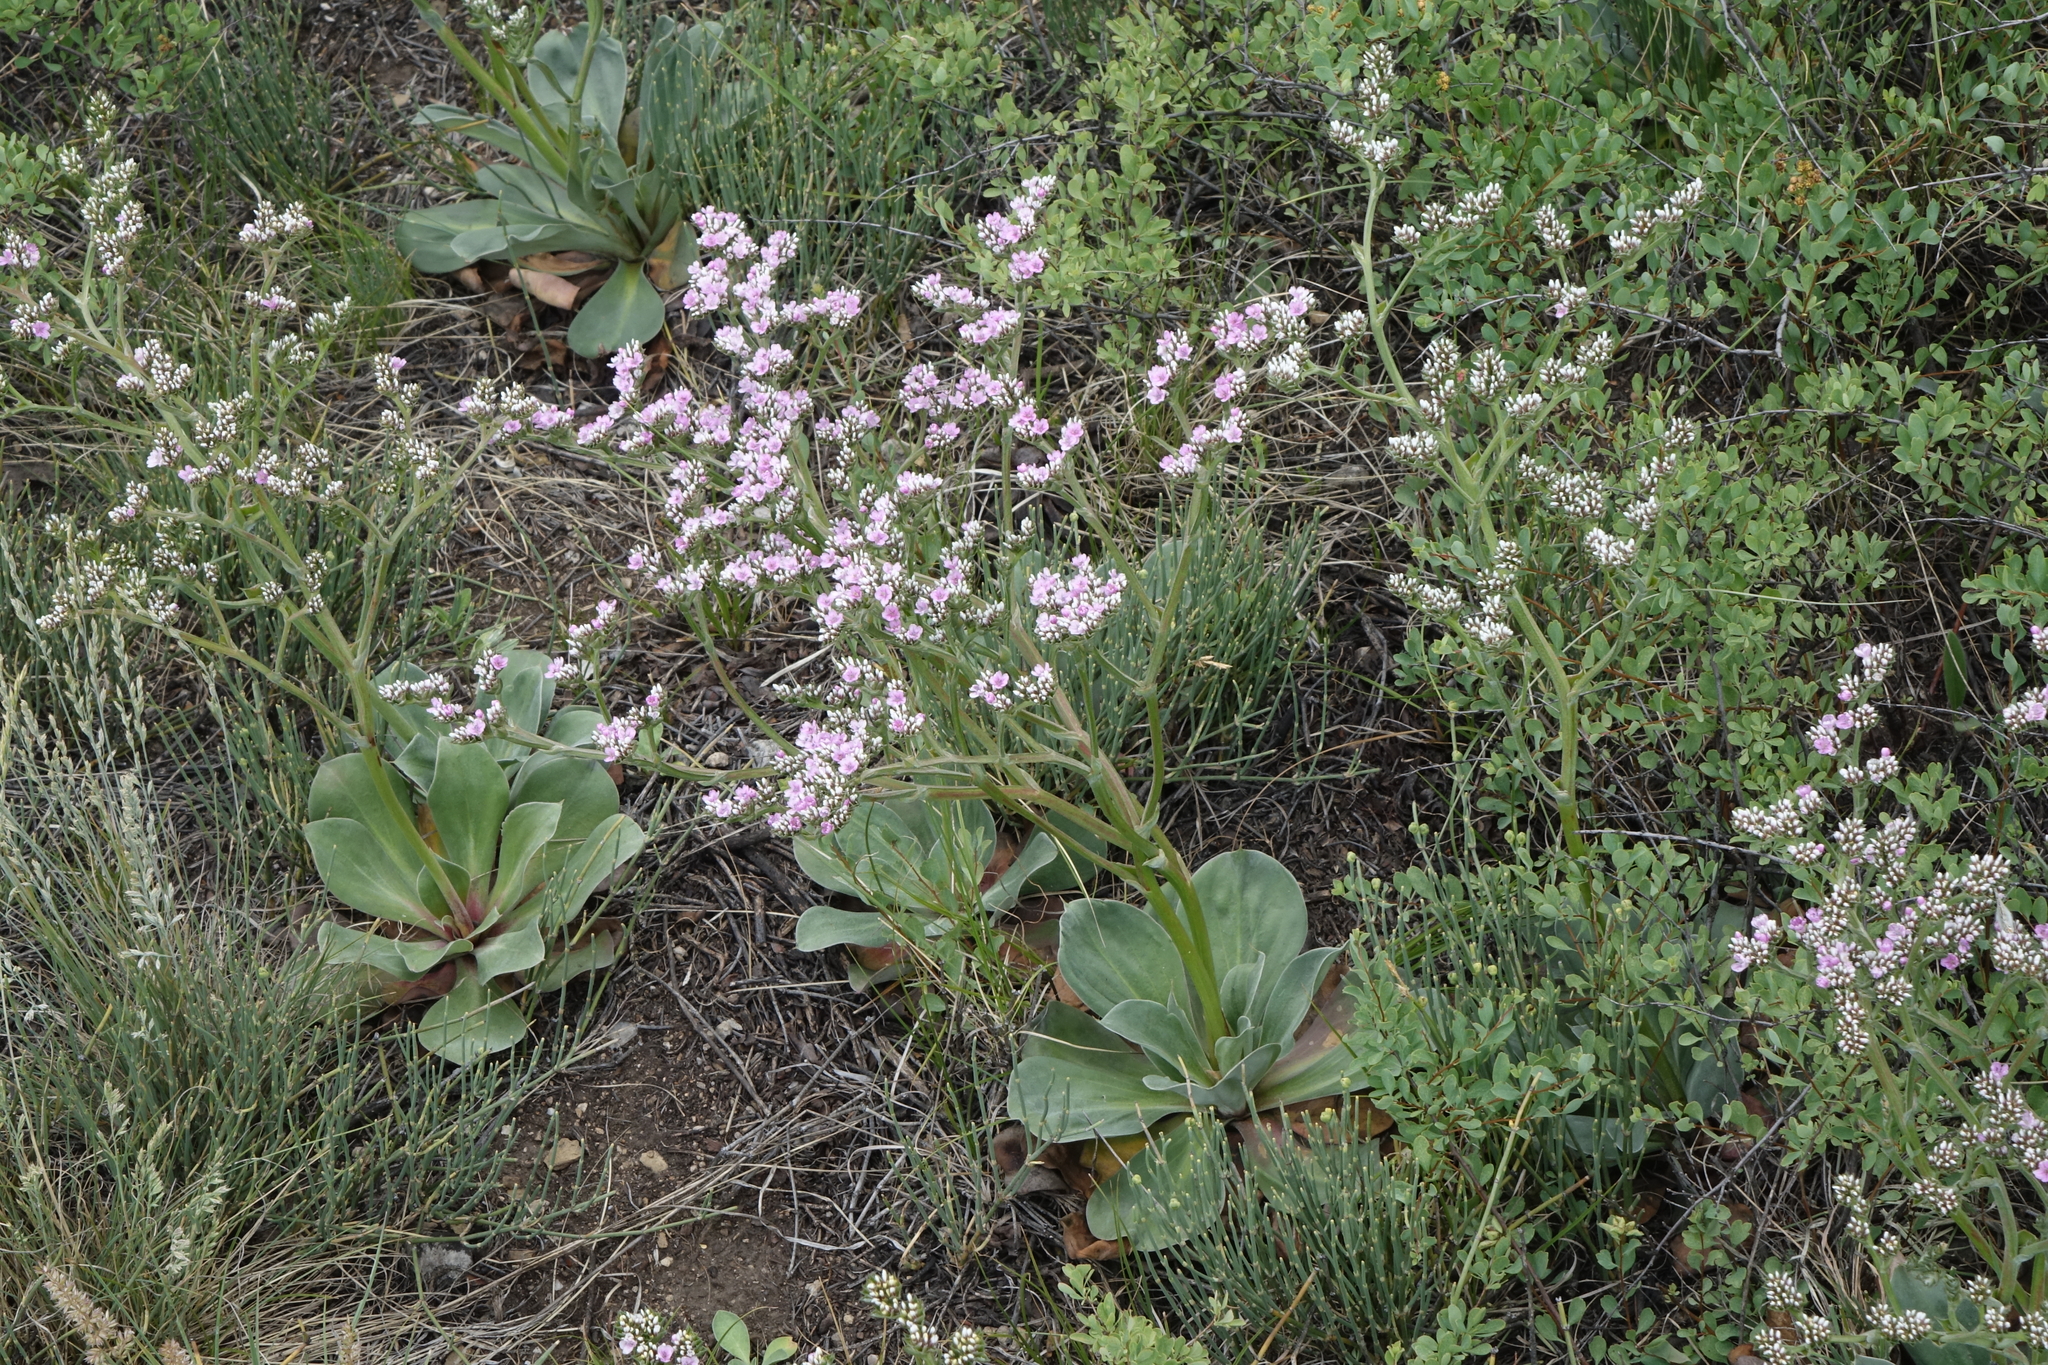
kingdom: Plantae
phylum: Tracheophyta
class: Magnoliopsida
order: Caryophyllales
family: Plumbaginaceae
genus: Goniolimon
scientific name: Goniolimon speciosum
